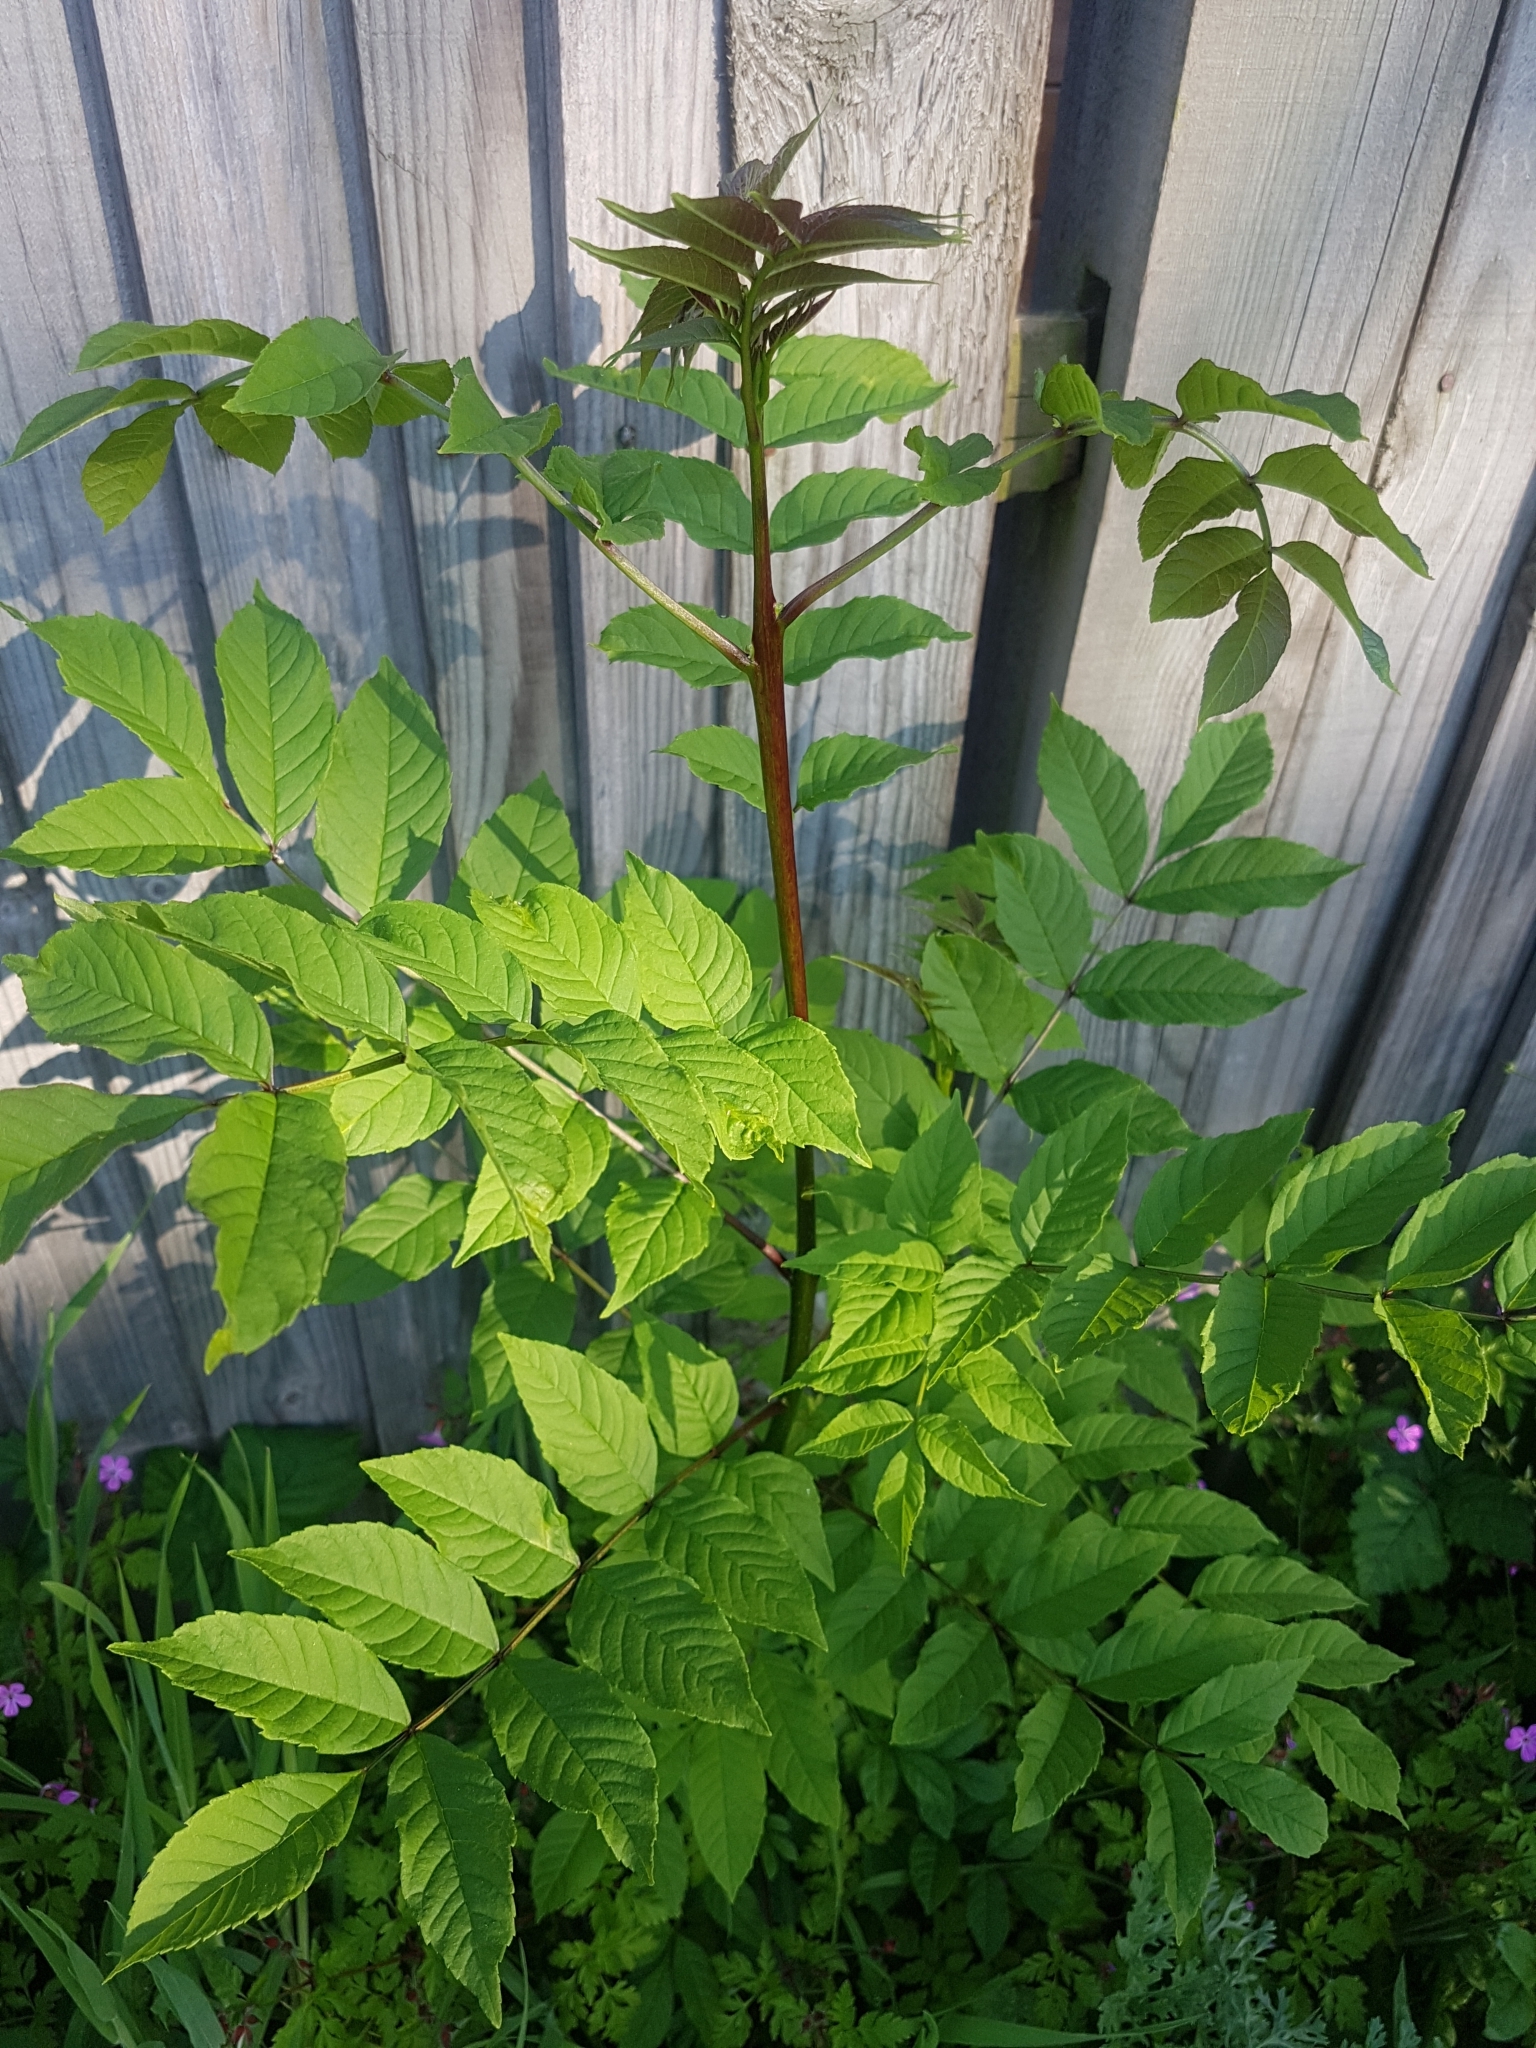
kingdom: Plantae
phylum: Tracheophyta
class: Magnoliopsida
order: Lamiales
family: Oleaceae
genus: Fraxinus
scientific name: Fraxinus excelsior
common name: European ash
